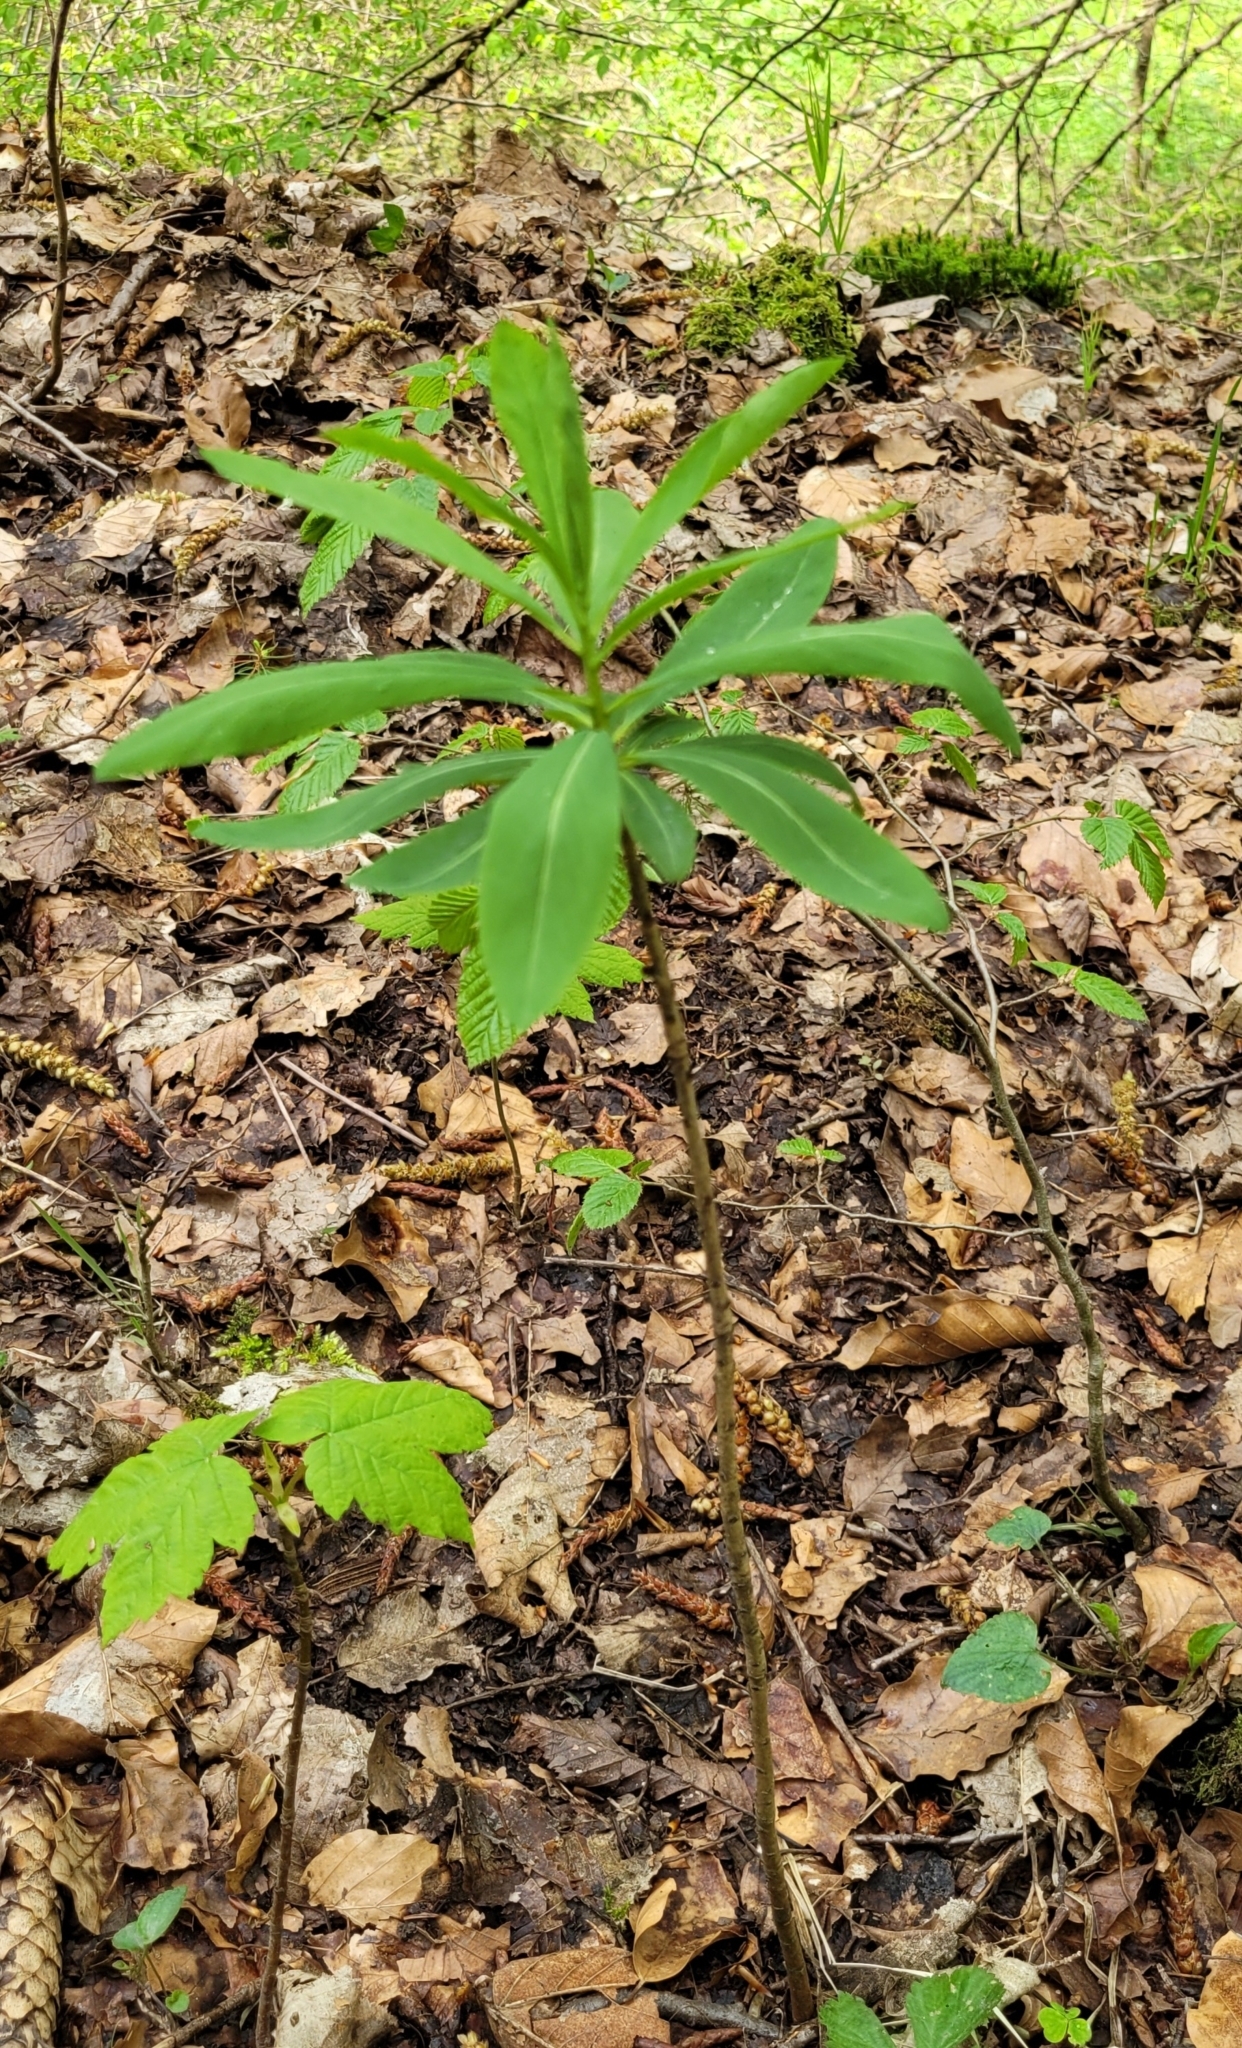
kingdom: Plantae
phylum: Tracheophyta
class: Magnoliopsida
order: Malvales
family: Thymelaeaceae
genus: Daphne
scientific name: Daphne mezereum
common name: Mezereon
